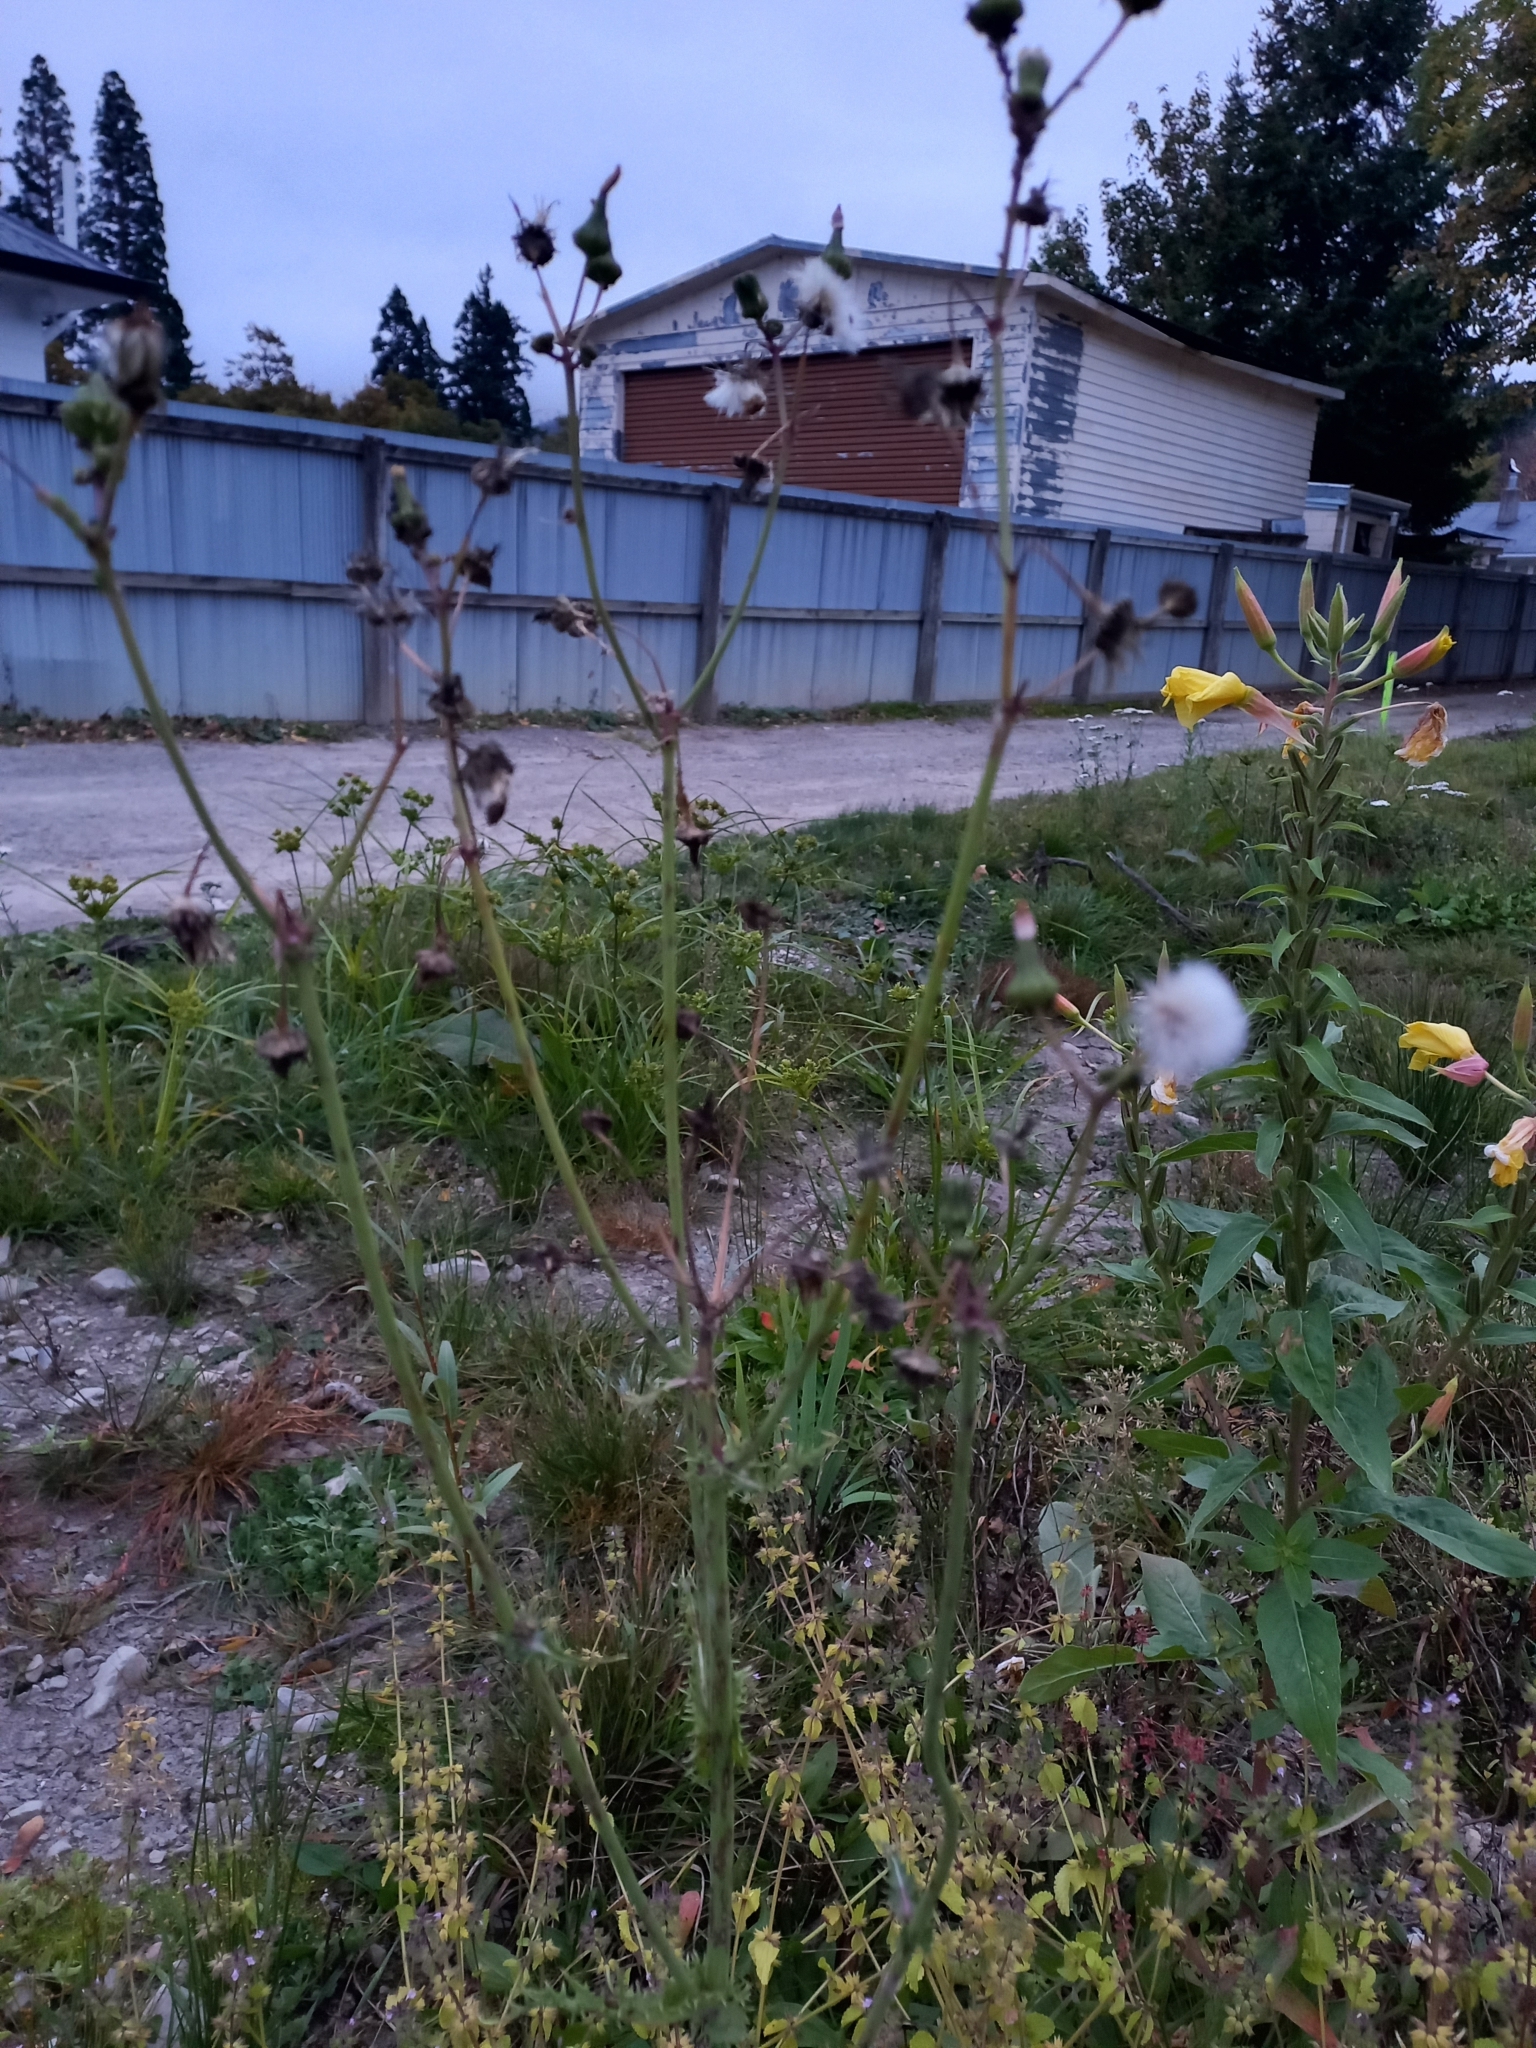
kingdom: Plantae
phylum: Tracheophyta
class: Magnoliopsida
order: Asterales
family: Asteraceae
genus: Cirsium
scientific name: Cirsium arvense
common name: Creeping thistle
